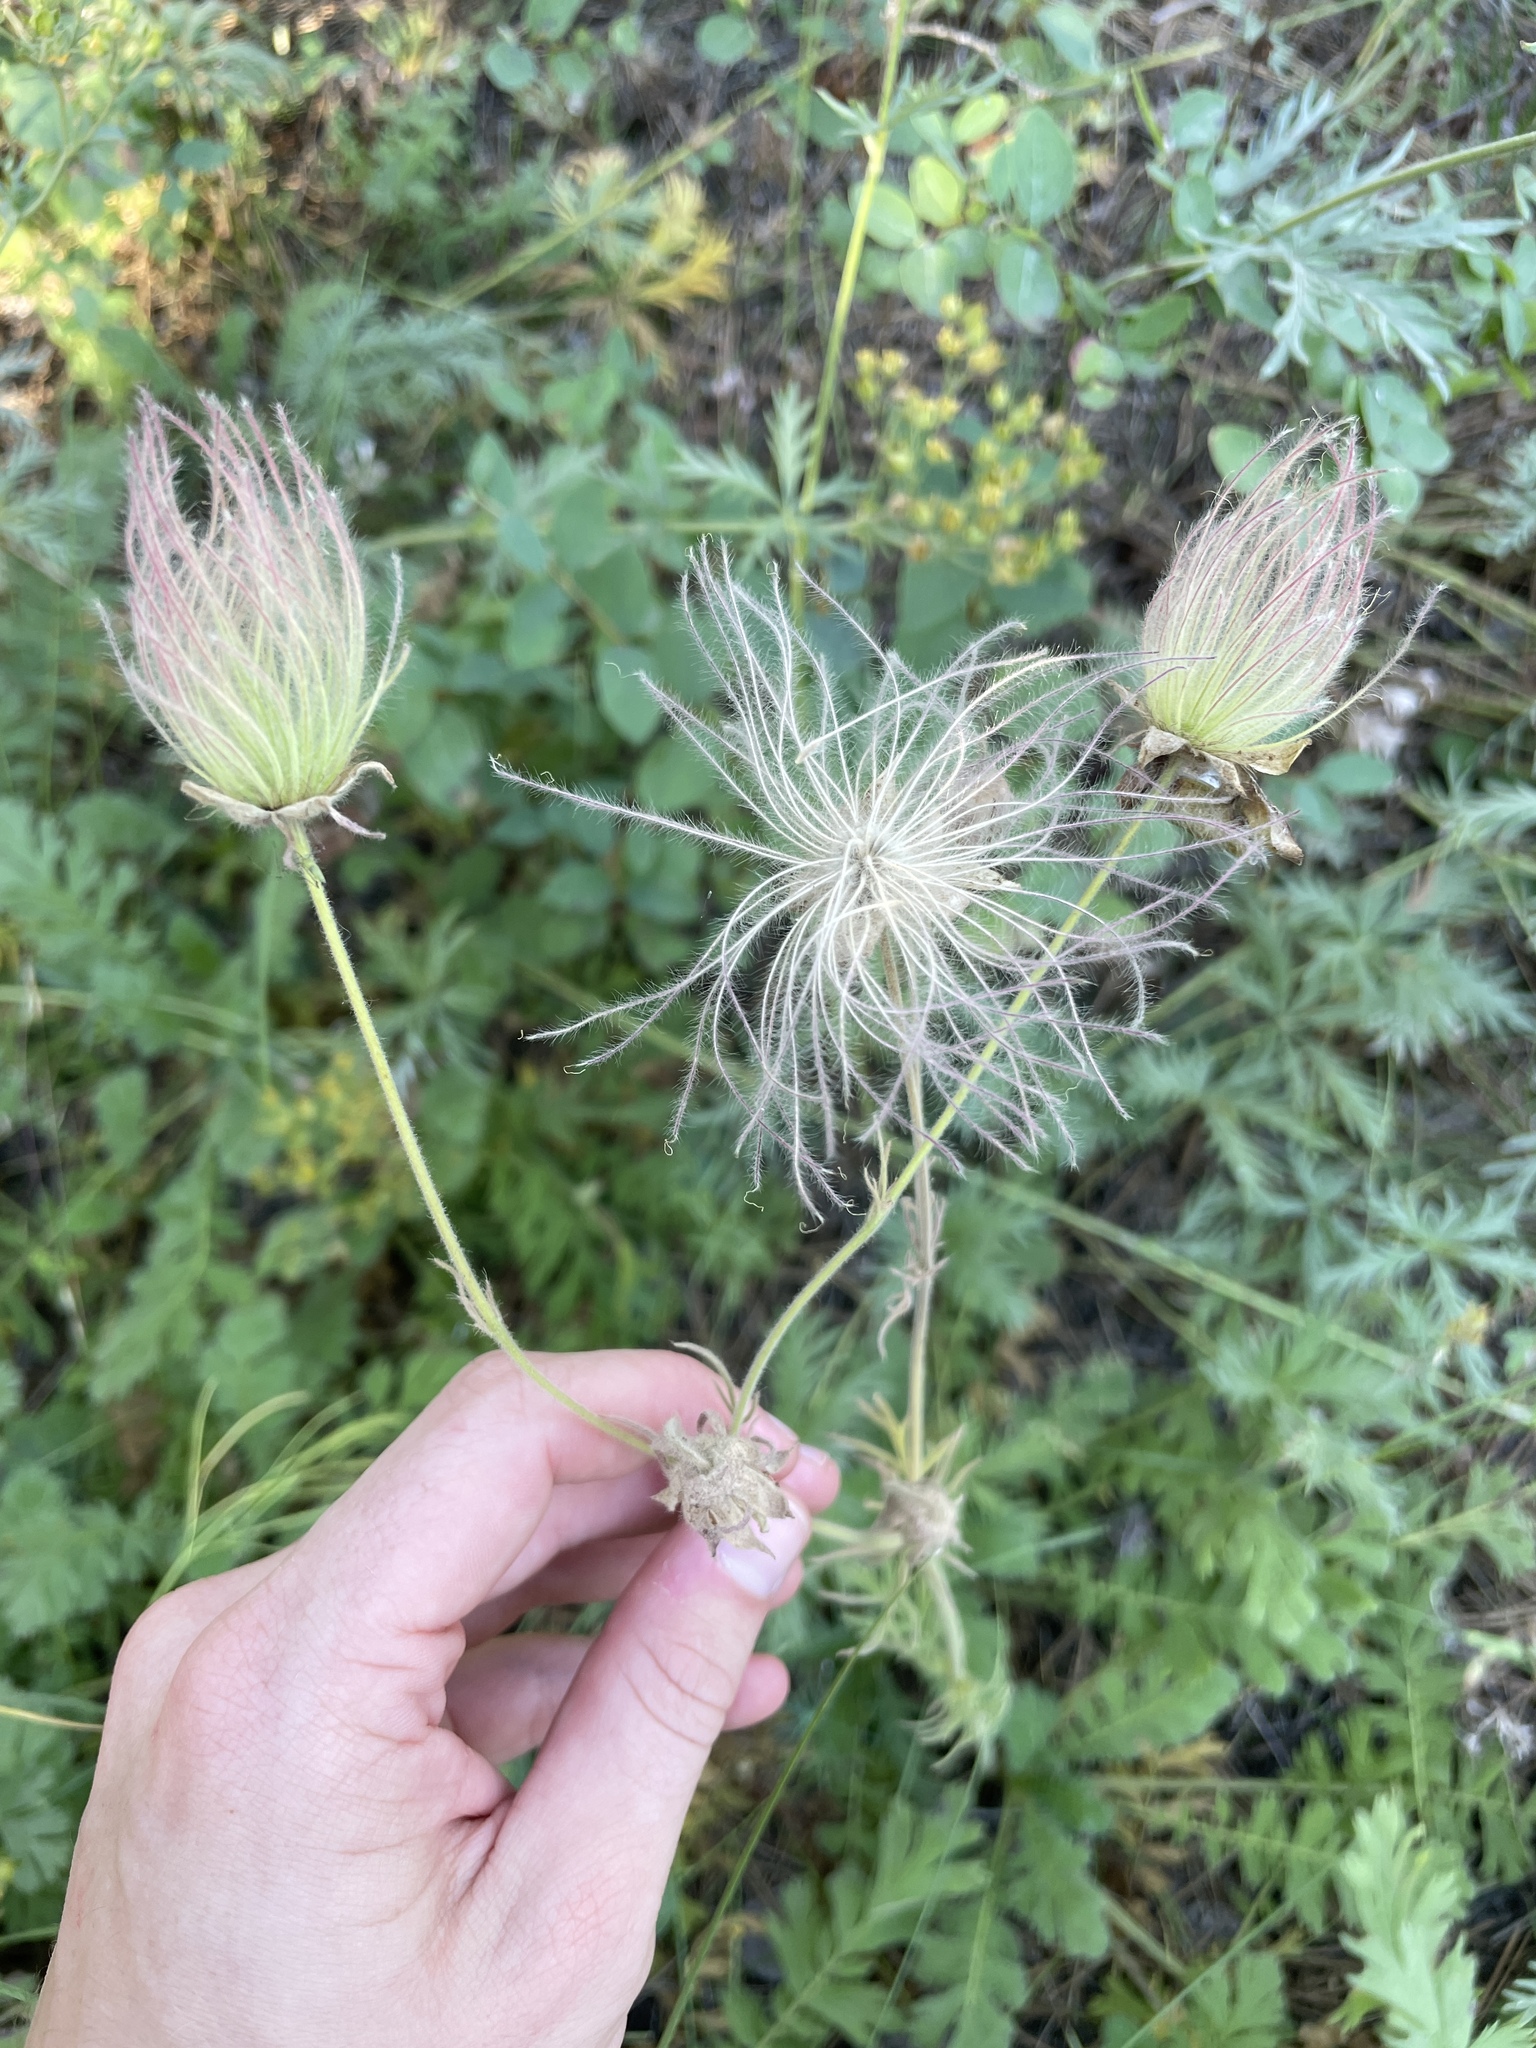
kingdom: Plantae
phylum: Tracheophyta
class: Magnoliopsida
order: Rosales
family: Rosaceae
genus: Geum
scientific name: Geum triflorum
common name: Old man's whiskers
